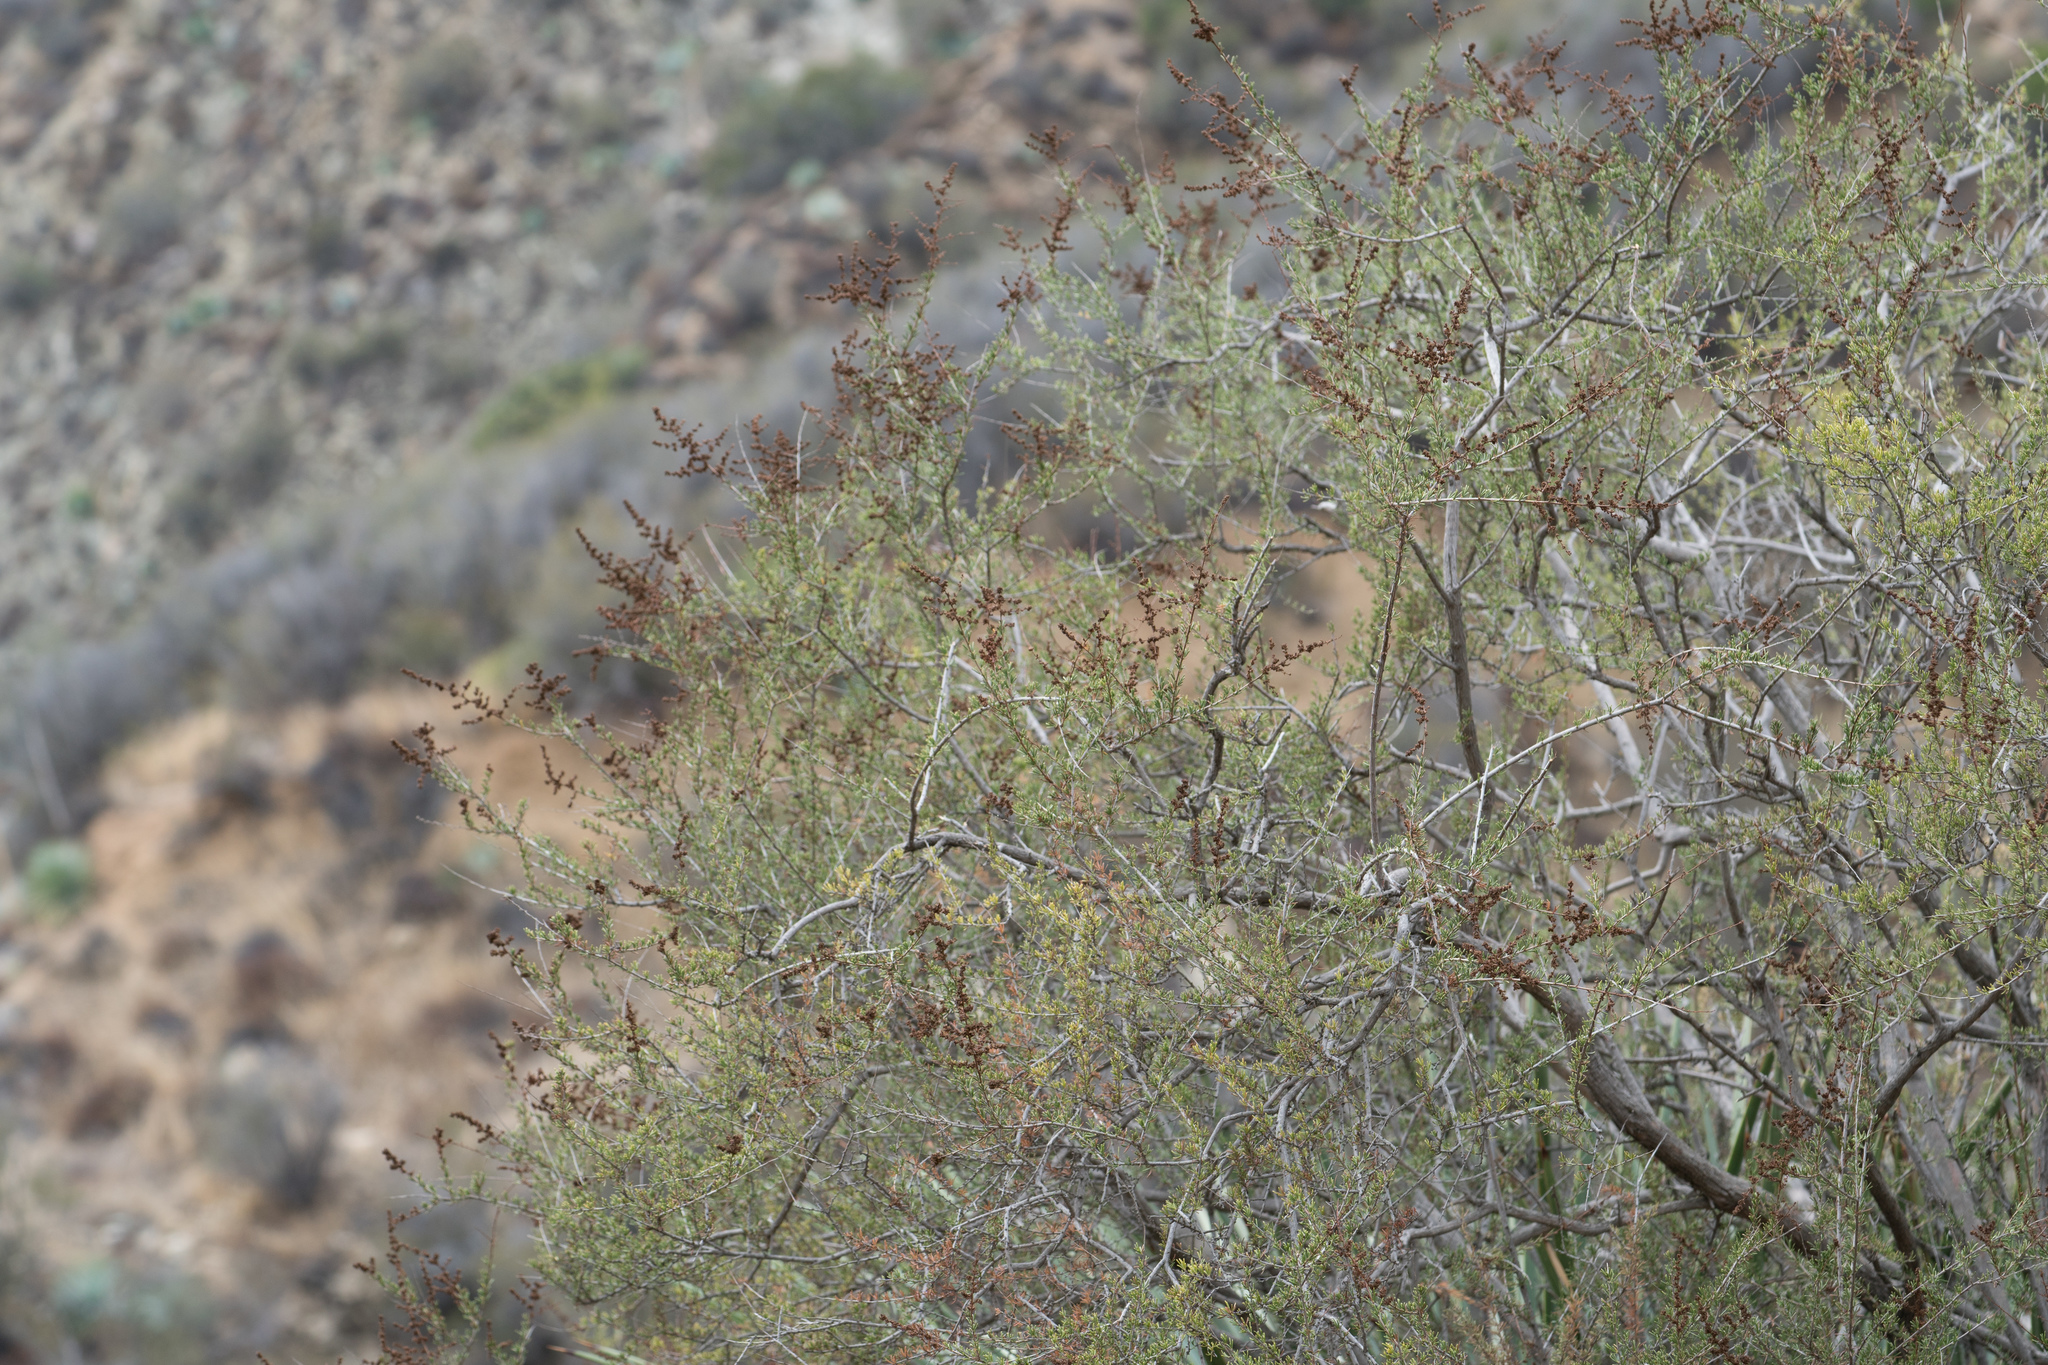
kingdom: Plantae
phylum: Tracheophyta
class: Magnoliopsida
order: Rosales
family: Rosaceae
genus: Adenostoma
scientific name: Adenostoma fasciculatum
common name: Chamise
